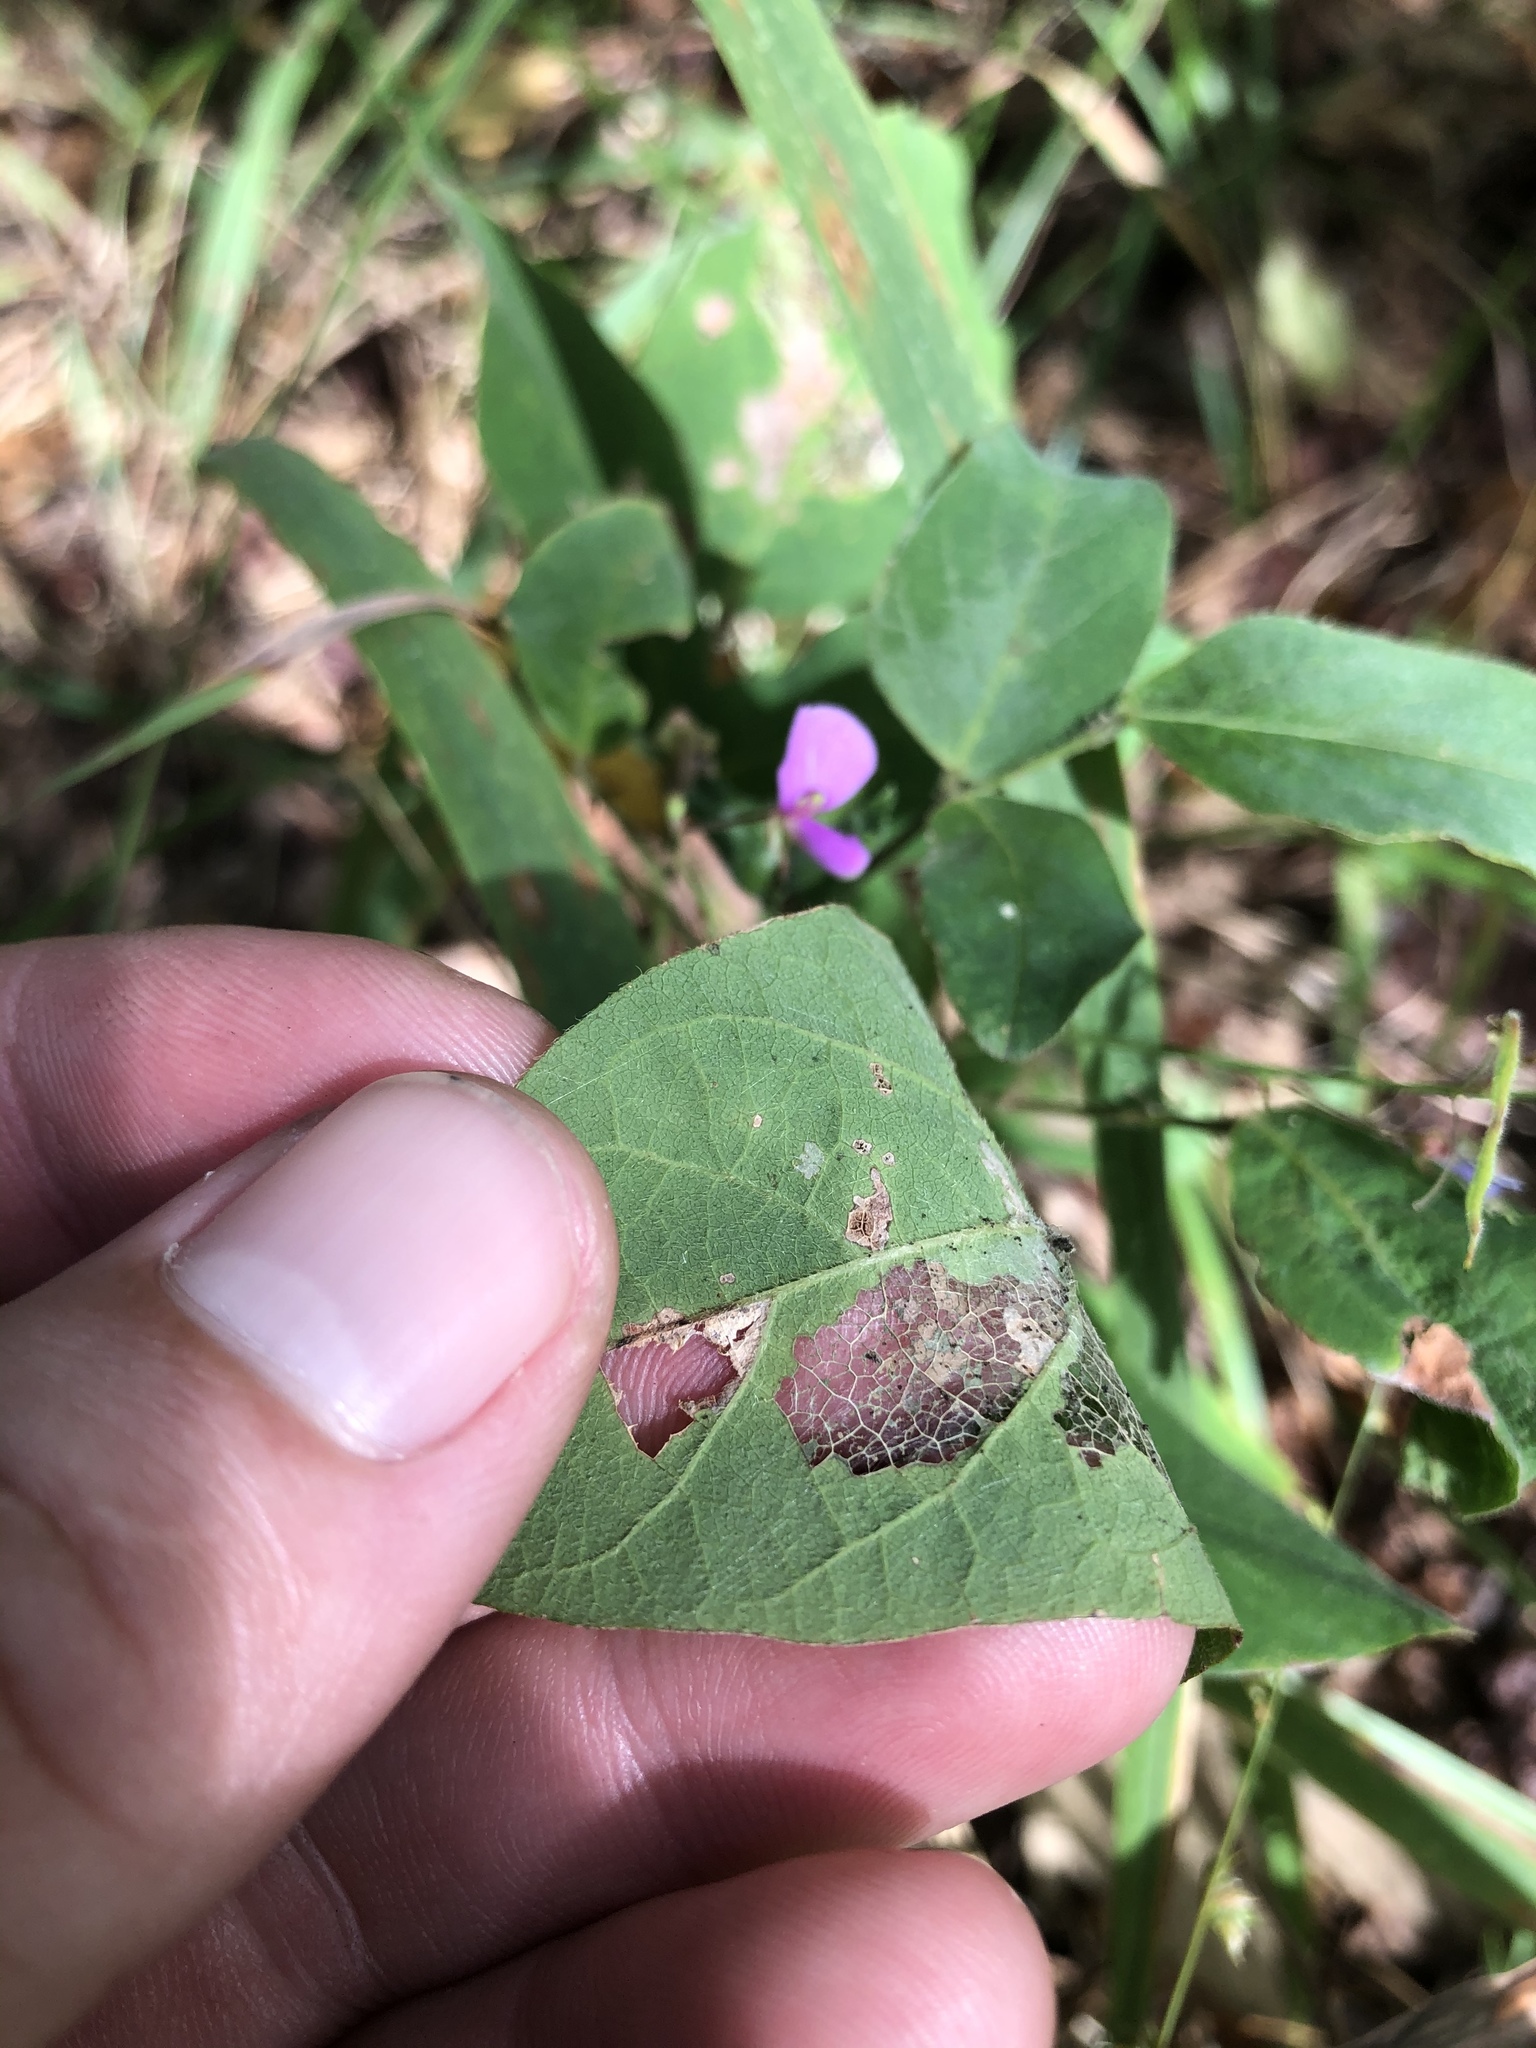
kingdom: Plantae
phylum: Tracheophyta
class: Magnoliopsida
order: Fabales
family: Fabaceae
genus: Desmodium
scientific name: Desmodium perplexum
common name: Perplexed tick trefoil
